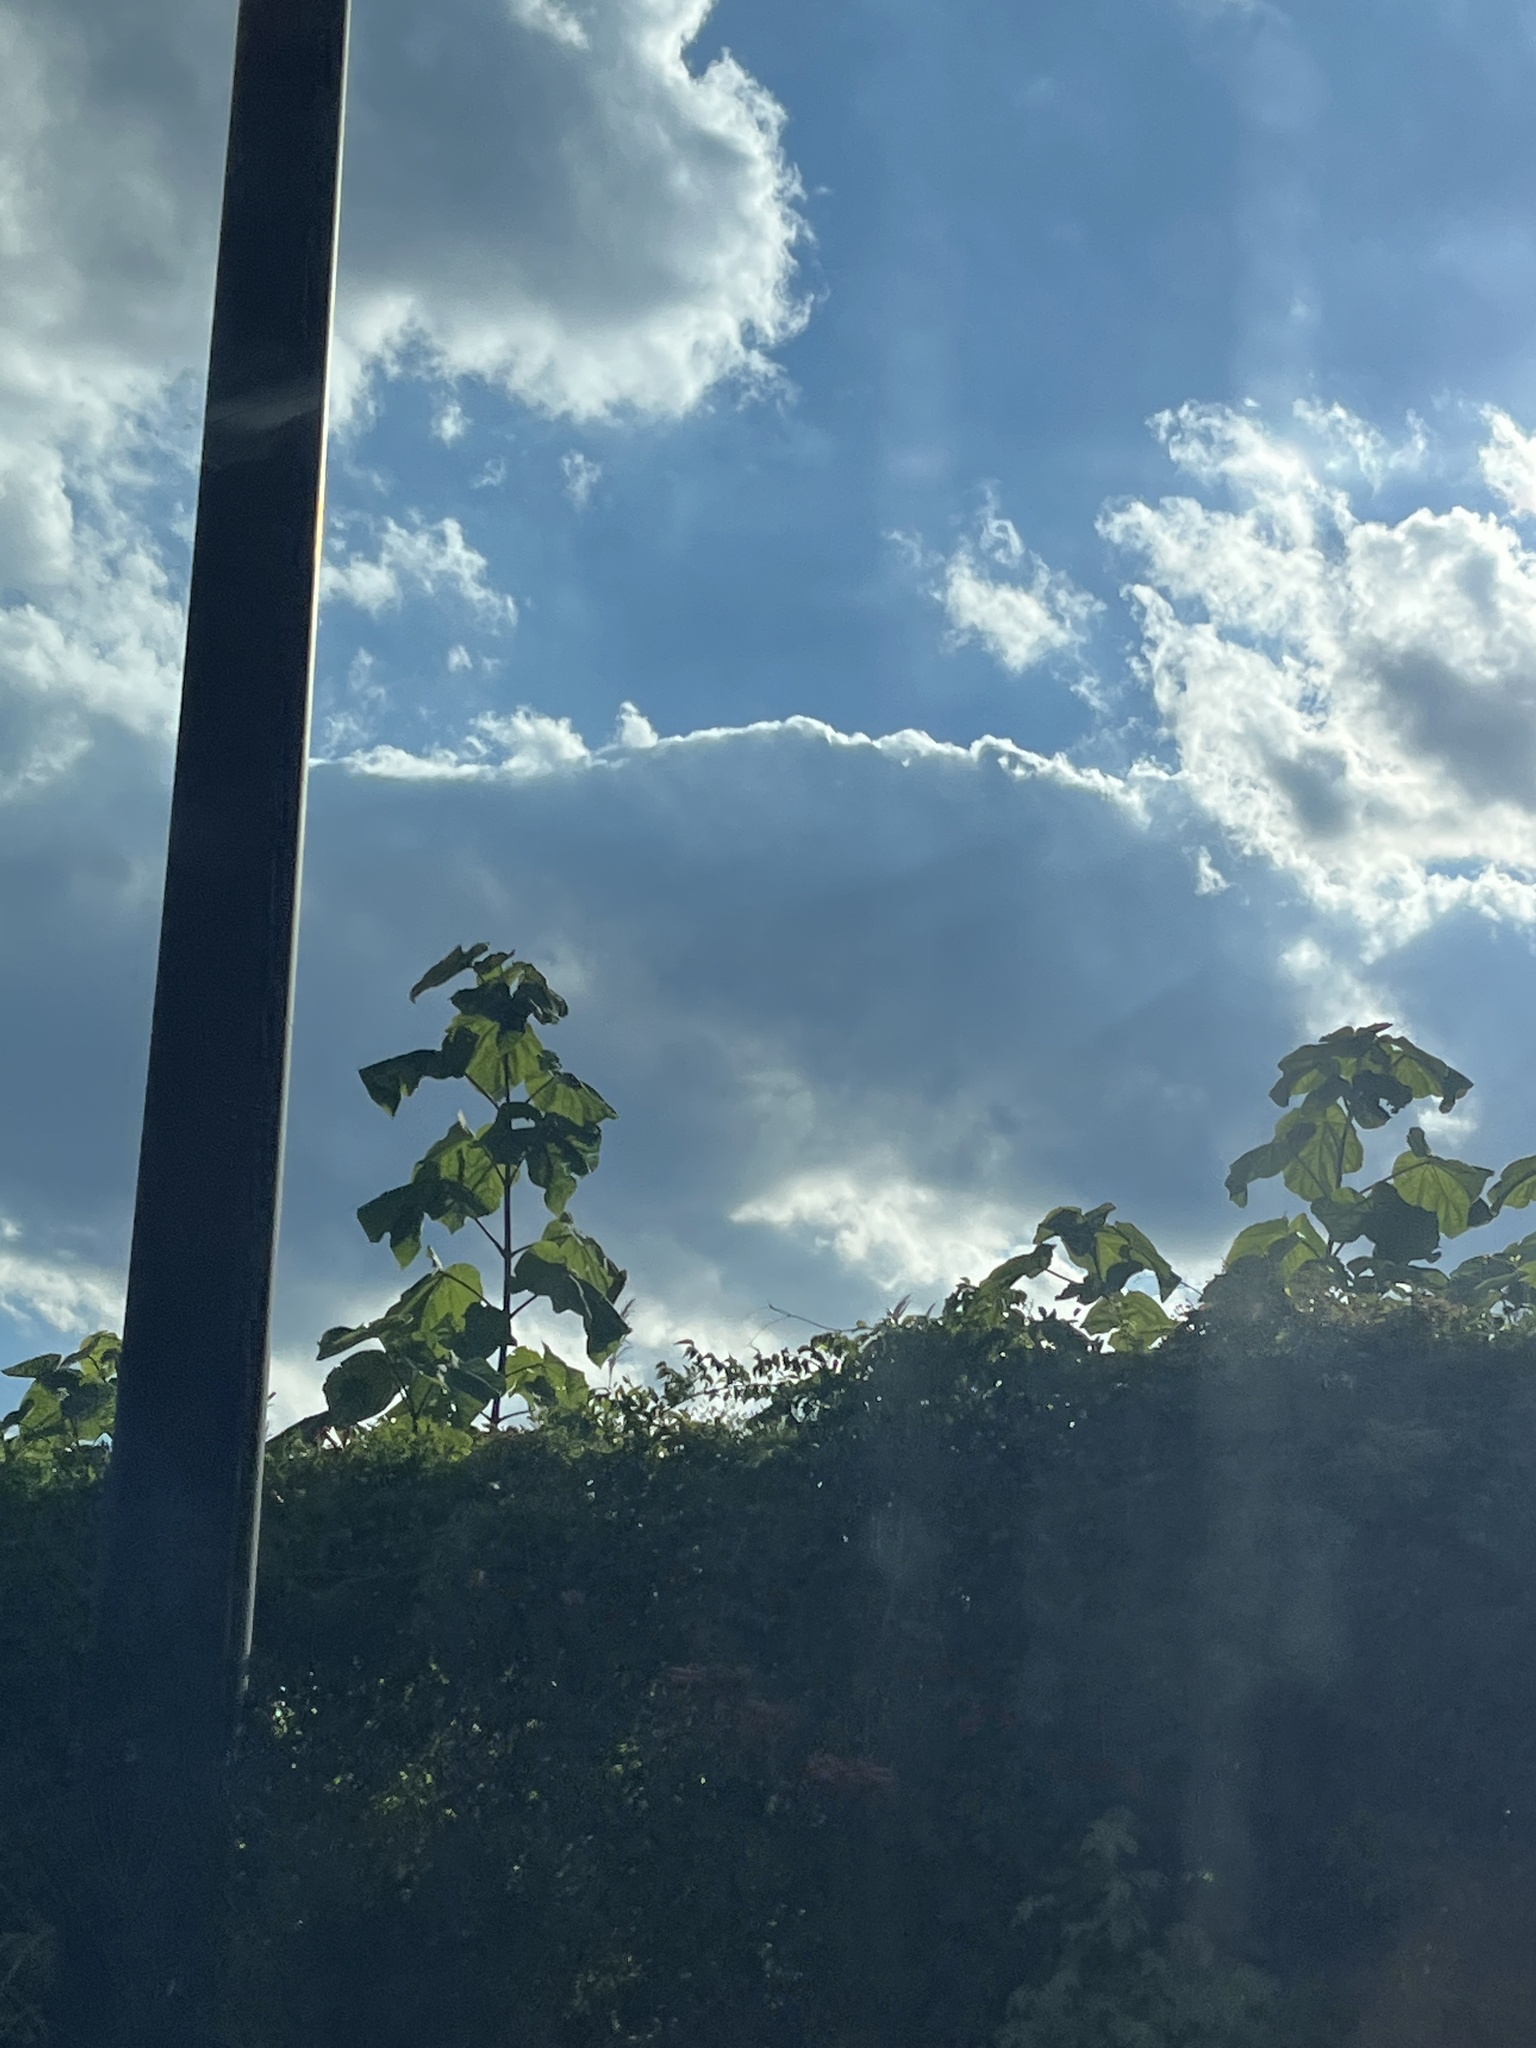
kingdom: Plantae
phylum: Tracheophyta
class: Magnoliopsida
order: Lamiales
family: Paulowniaceae
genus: Paulownia
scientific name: Paulownia tomentosa
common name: Foxglove-tree
